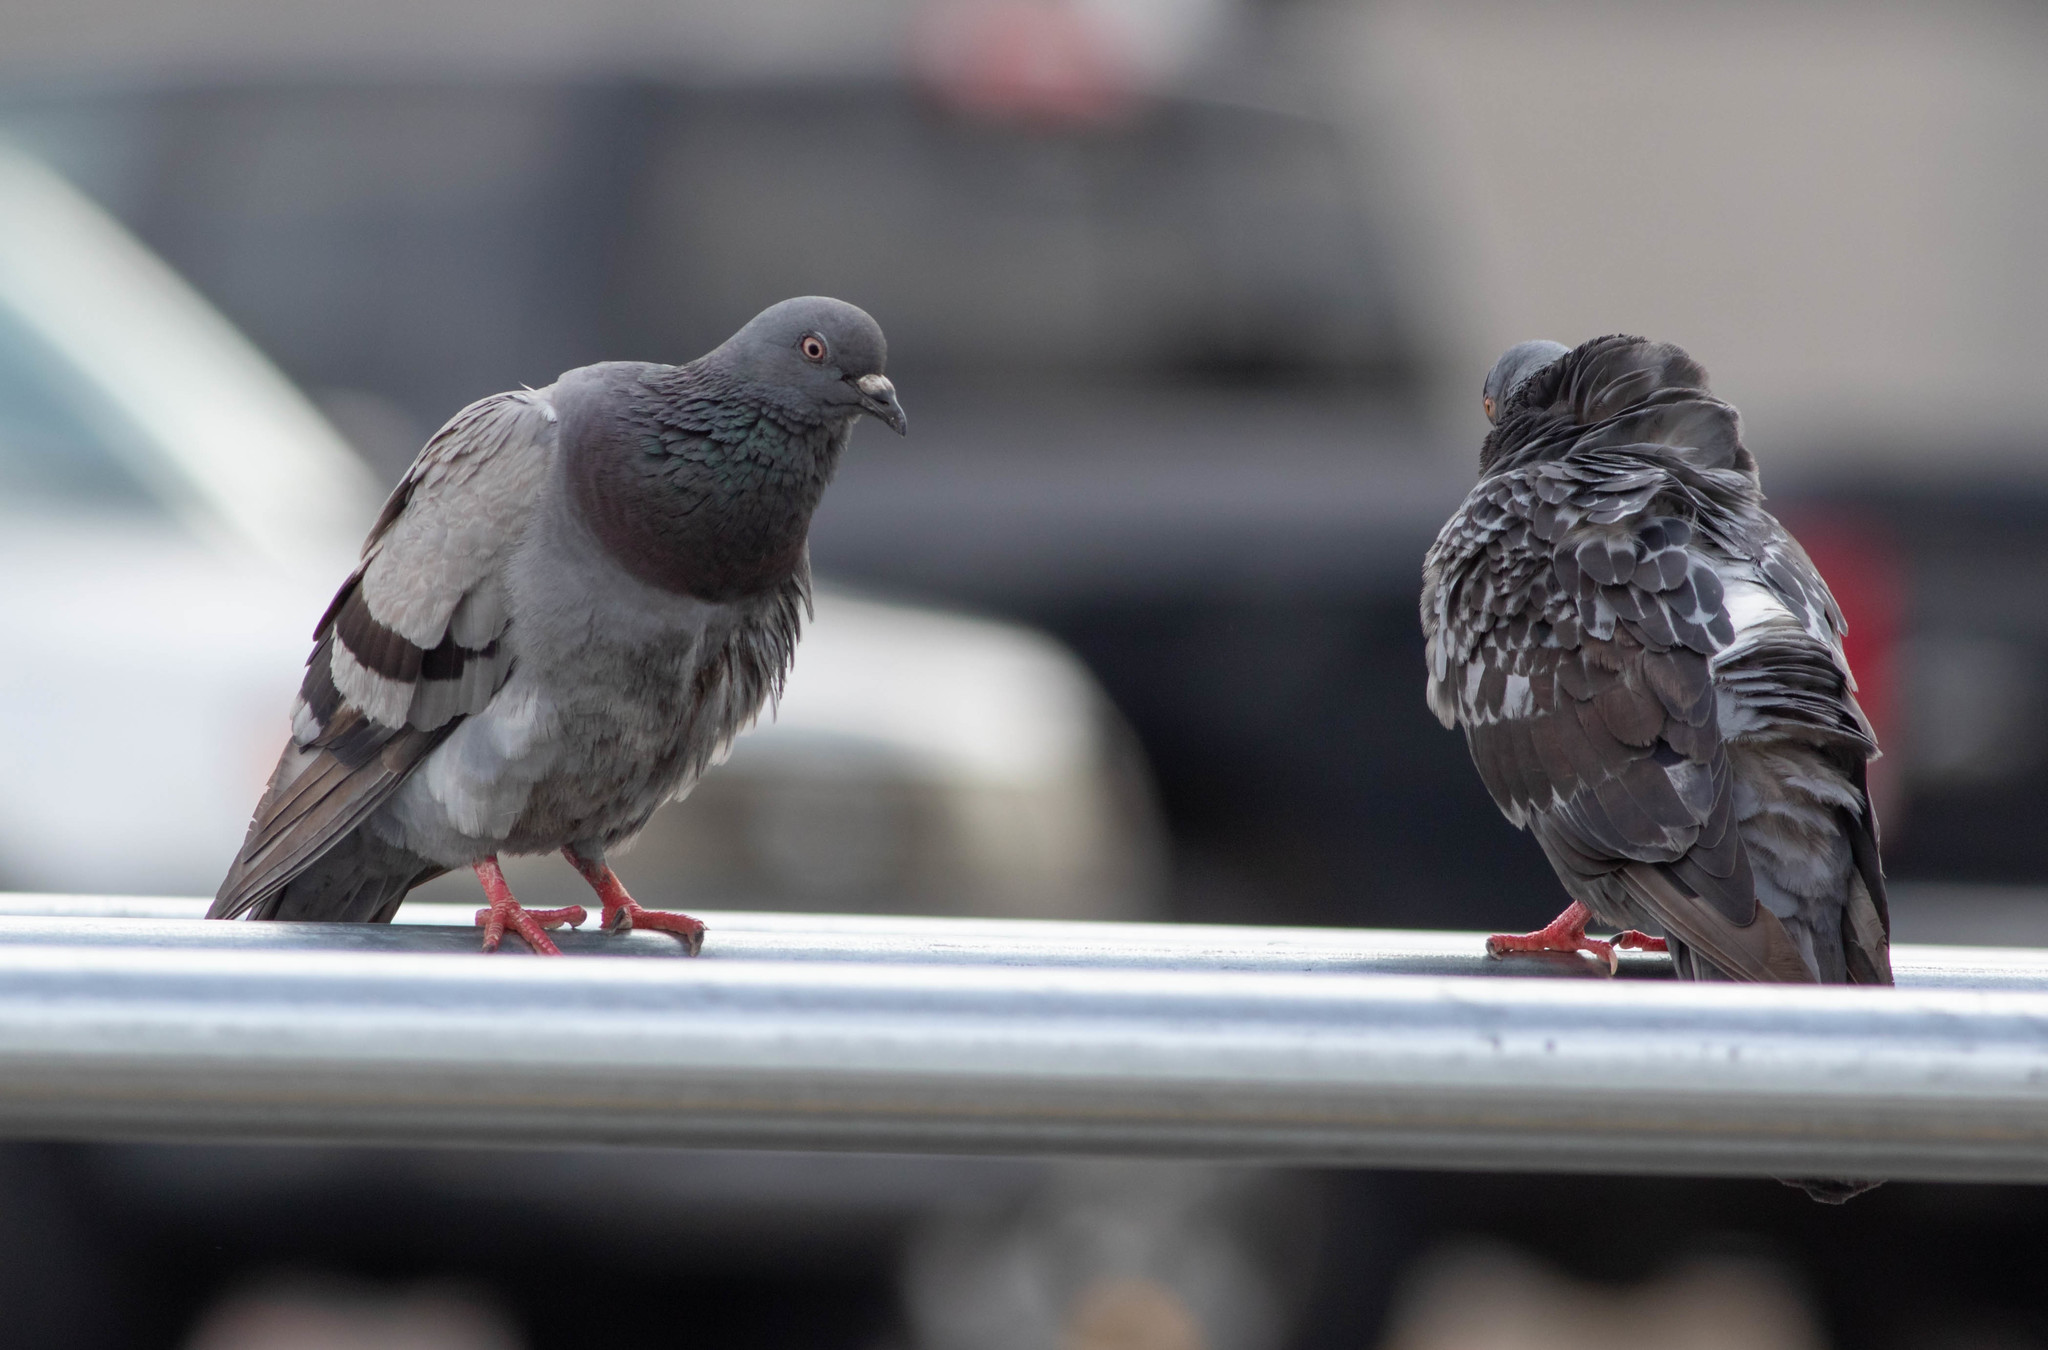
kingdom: Animalia
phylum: Chordata
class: Aves
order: Columbiformes
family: Columbidae
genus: Columba
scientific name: Columba livia
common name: Rock pigeon
